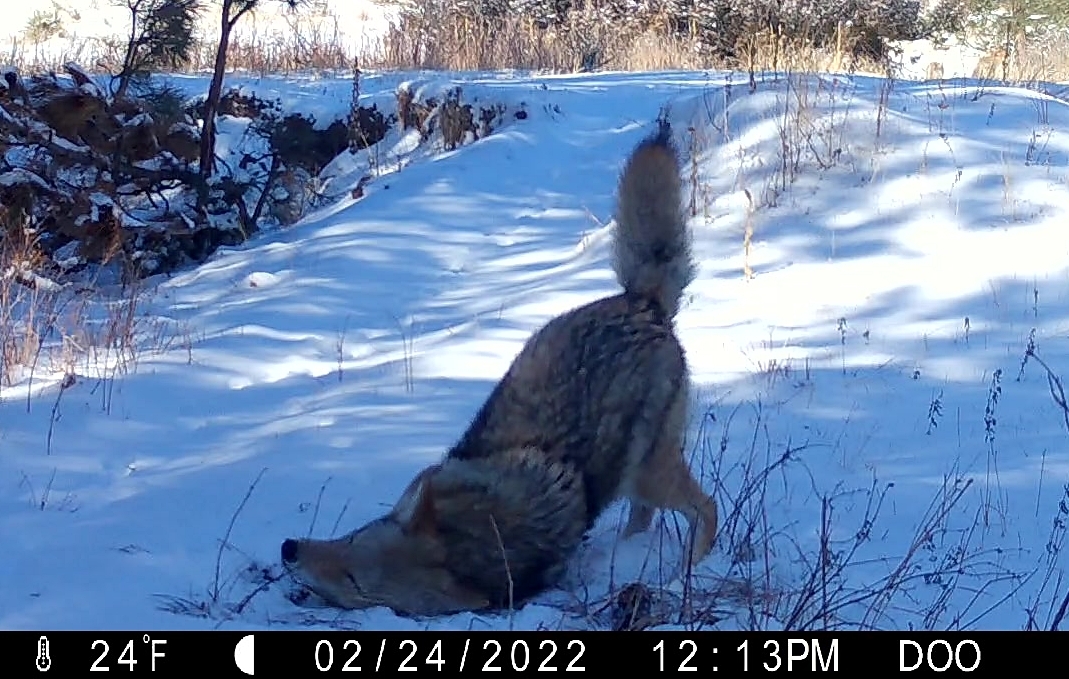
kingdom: Animalia
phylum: Chordata
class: Mammalia
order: Carnivora
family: Canidae
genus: Canis
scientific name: Canis latrans
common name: Coyote
